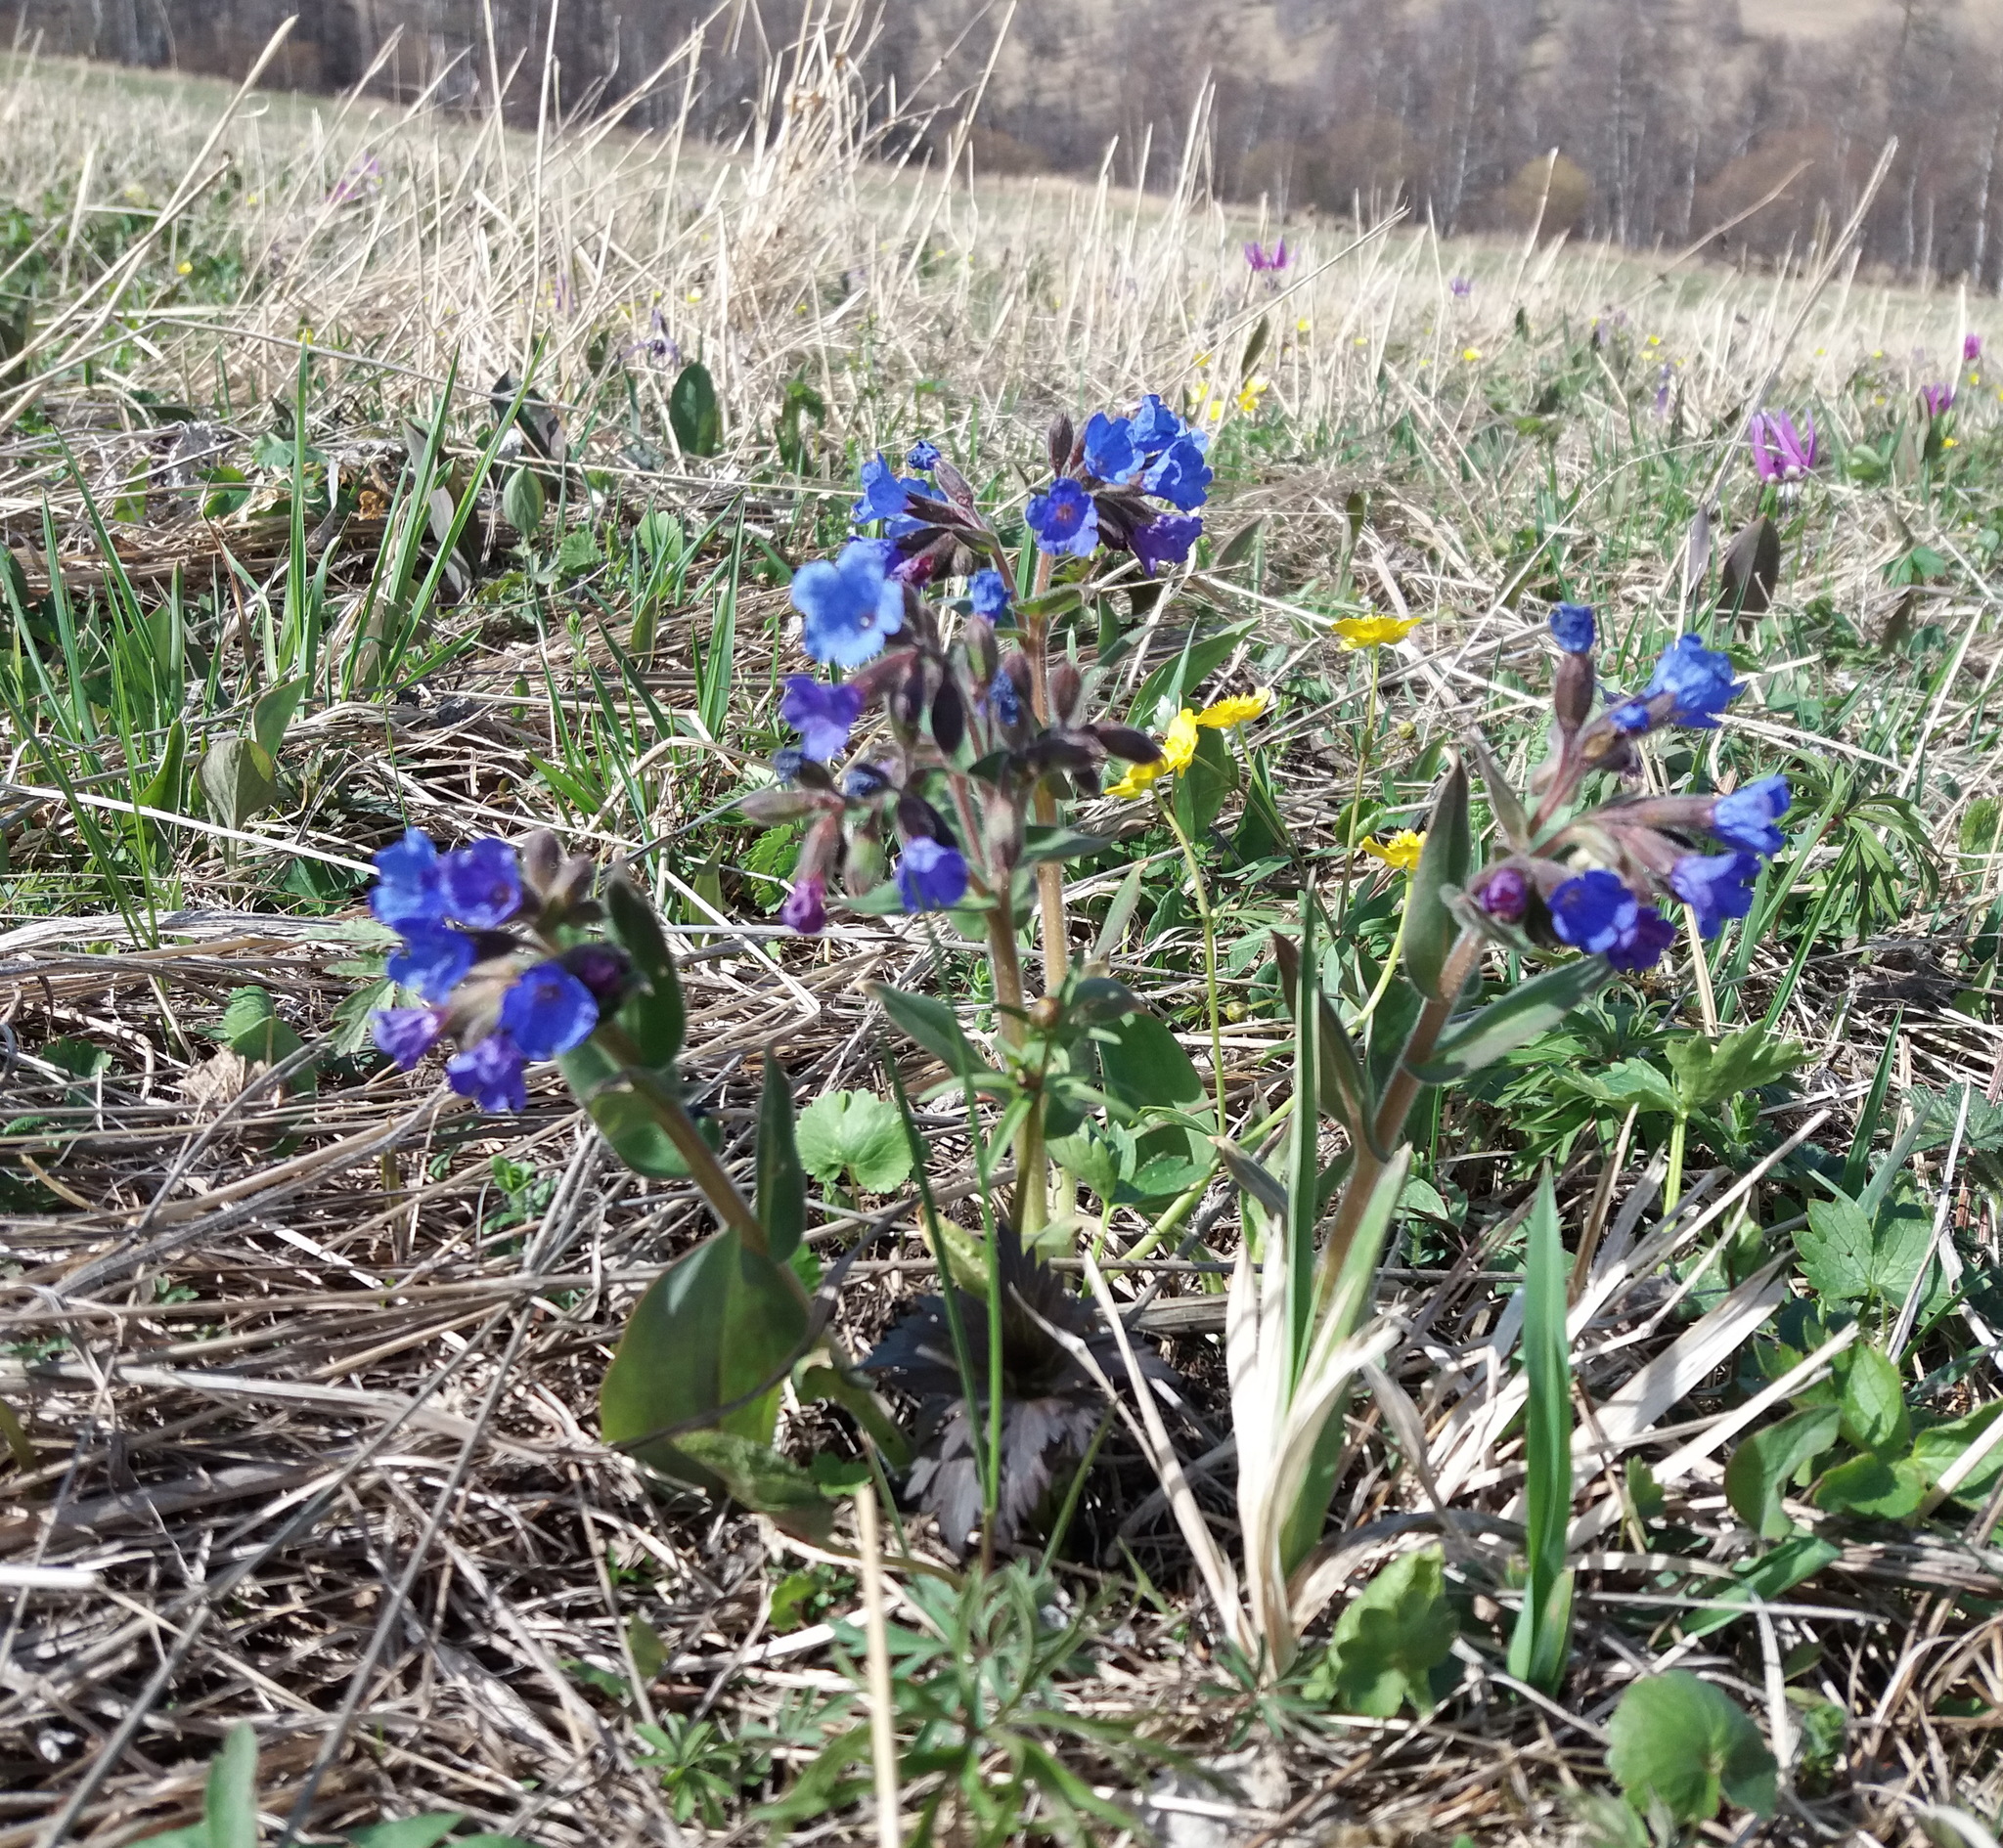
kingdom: Plantae
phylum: Tracheophyta
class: Magnoliopsida
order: Boraginales
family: Boraginaceae
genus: Pulmonaria
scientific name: Pulmonaria mollis
